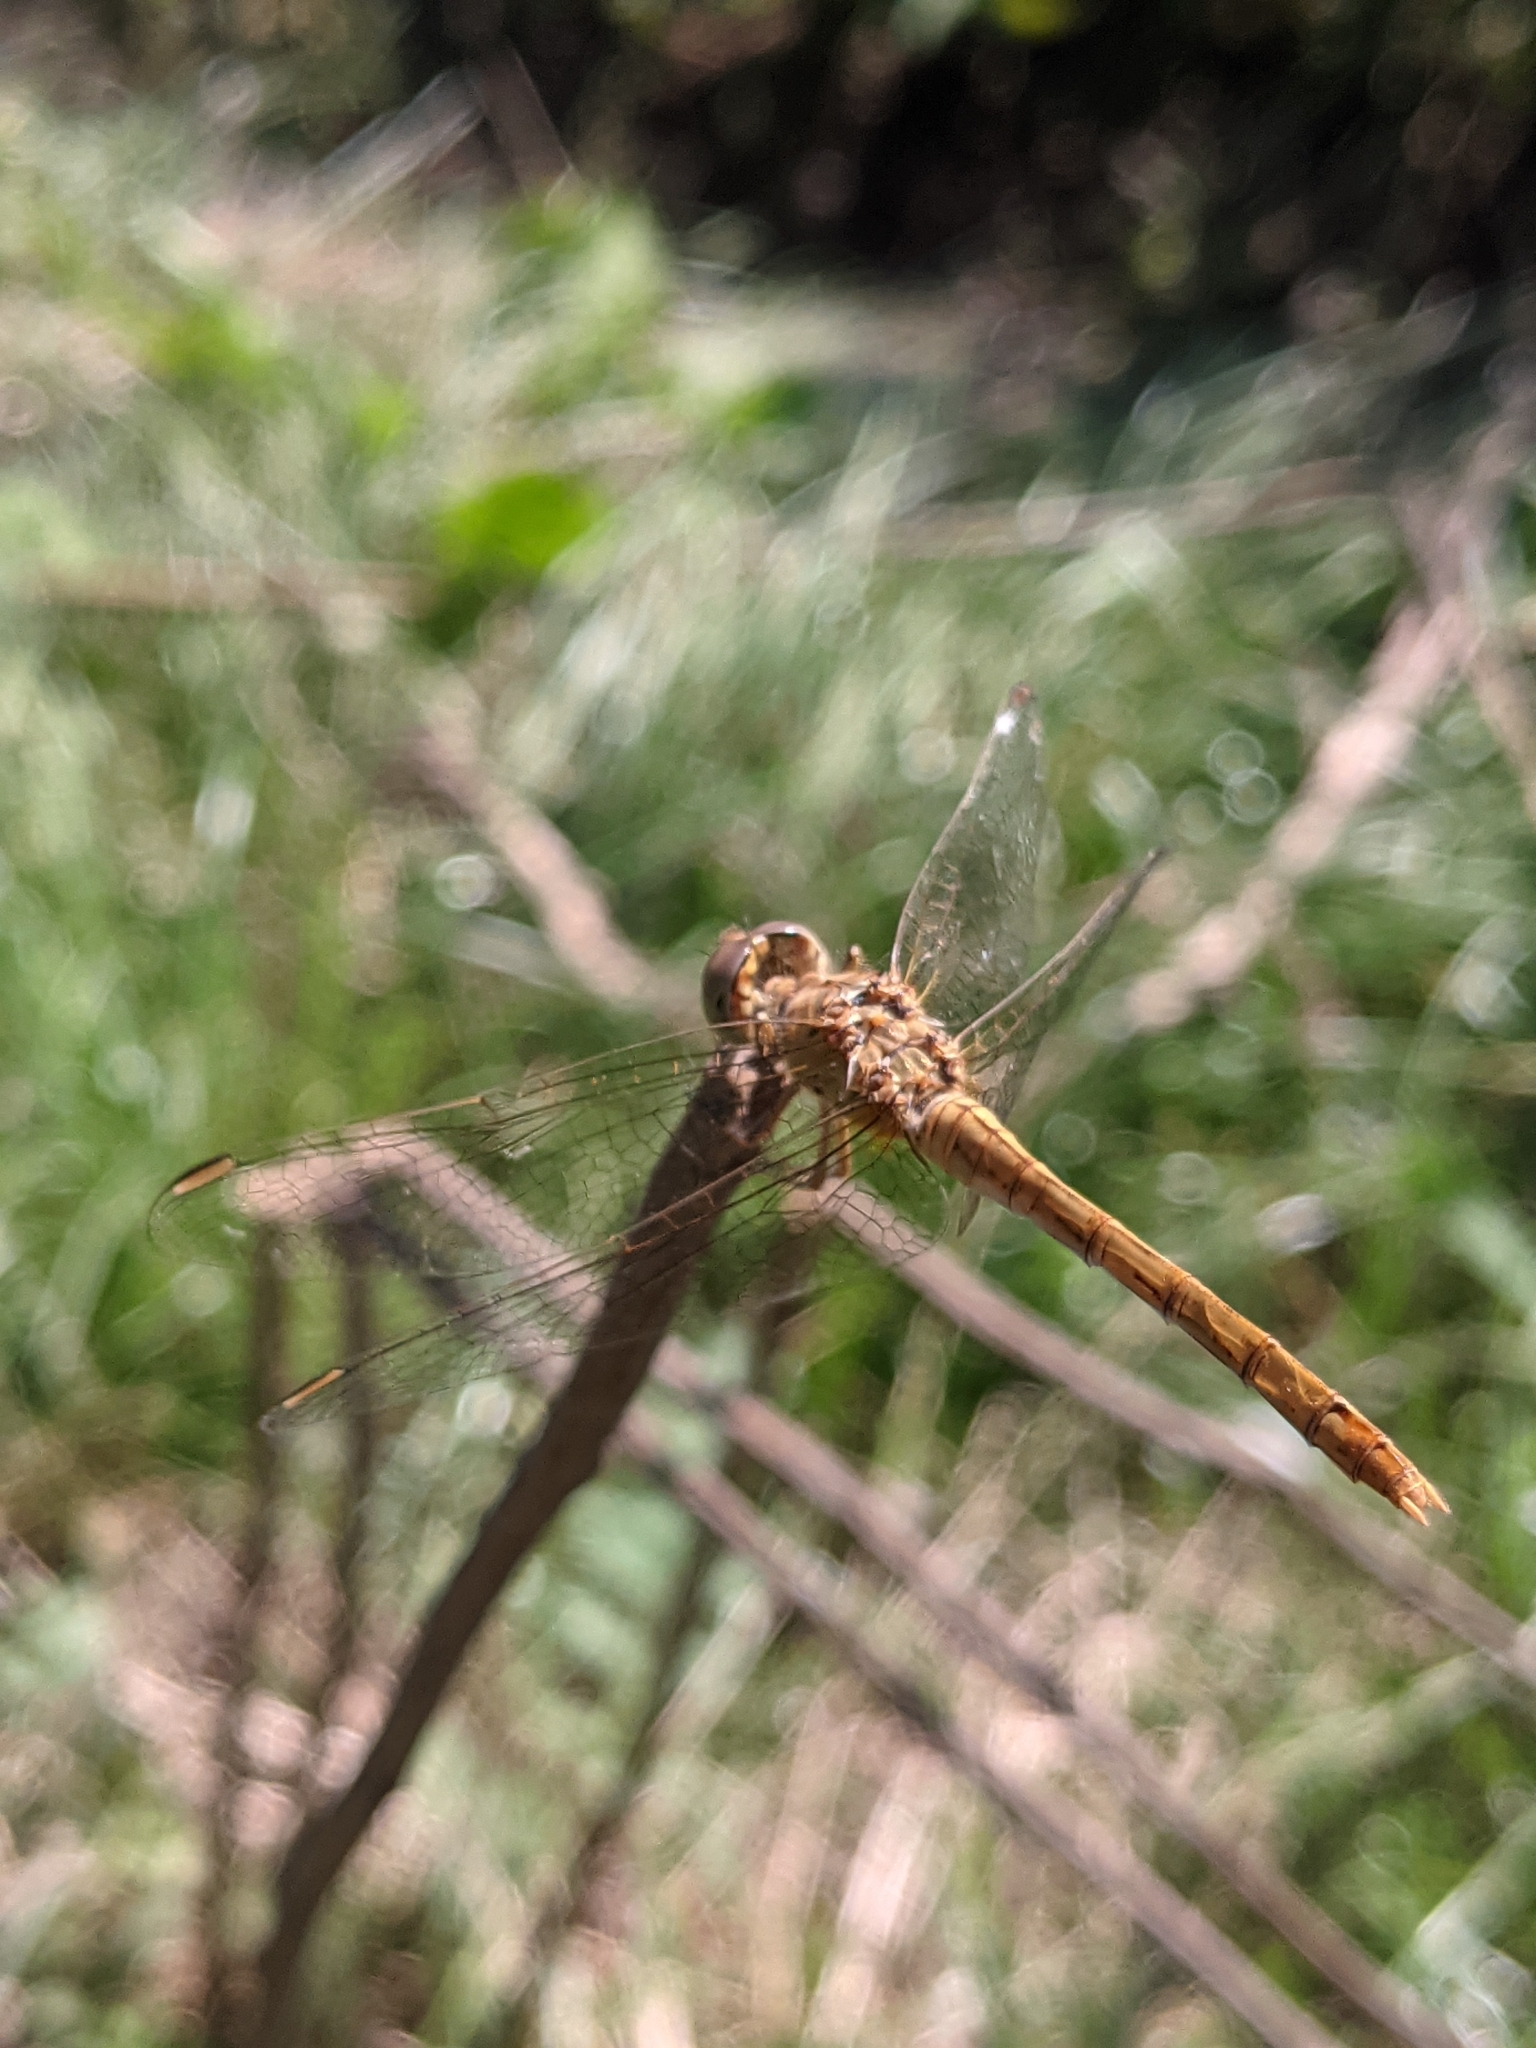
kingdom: Animalia
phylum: Arthropoda
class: Insecta
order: Odonata
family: Libellulidae
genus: Sympetrum
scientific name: Sympetrum meridionale
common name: Southern darter
